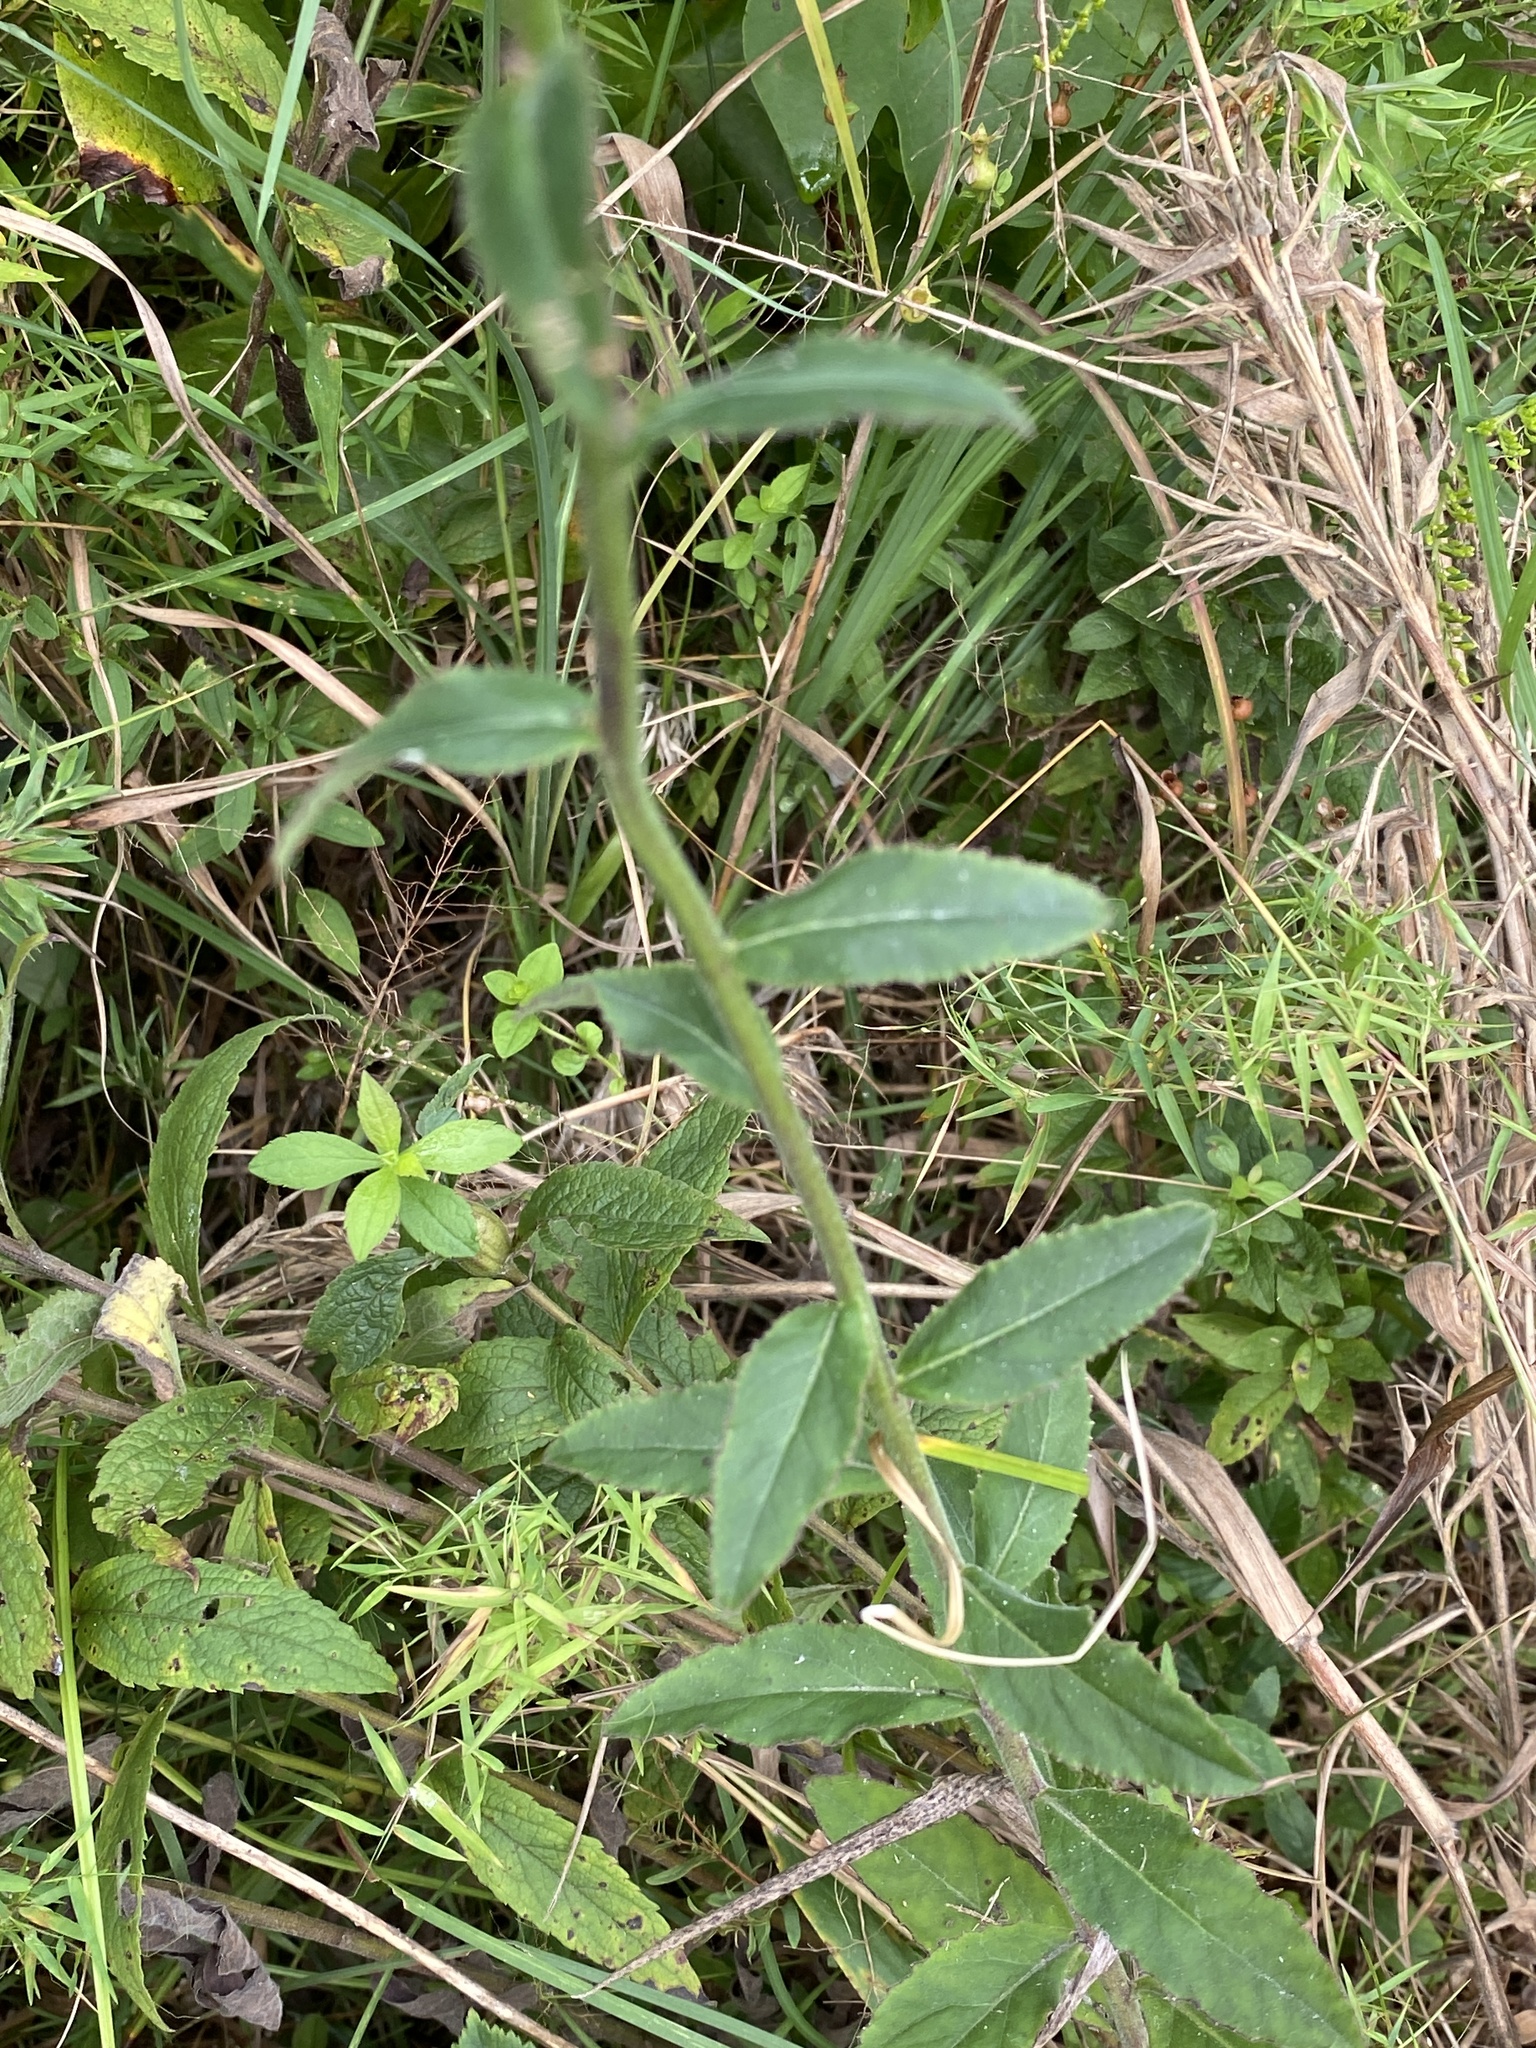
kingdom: Plantae
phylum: Tracheophyta
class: Magnoliopsida
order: Asterales
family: Campanulaceae
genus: Lobelia
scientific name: Lobelia puberula
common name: Purple dewdrop
